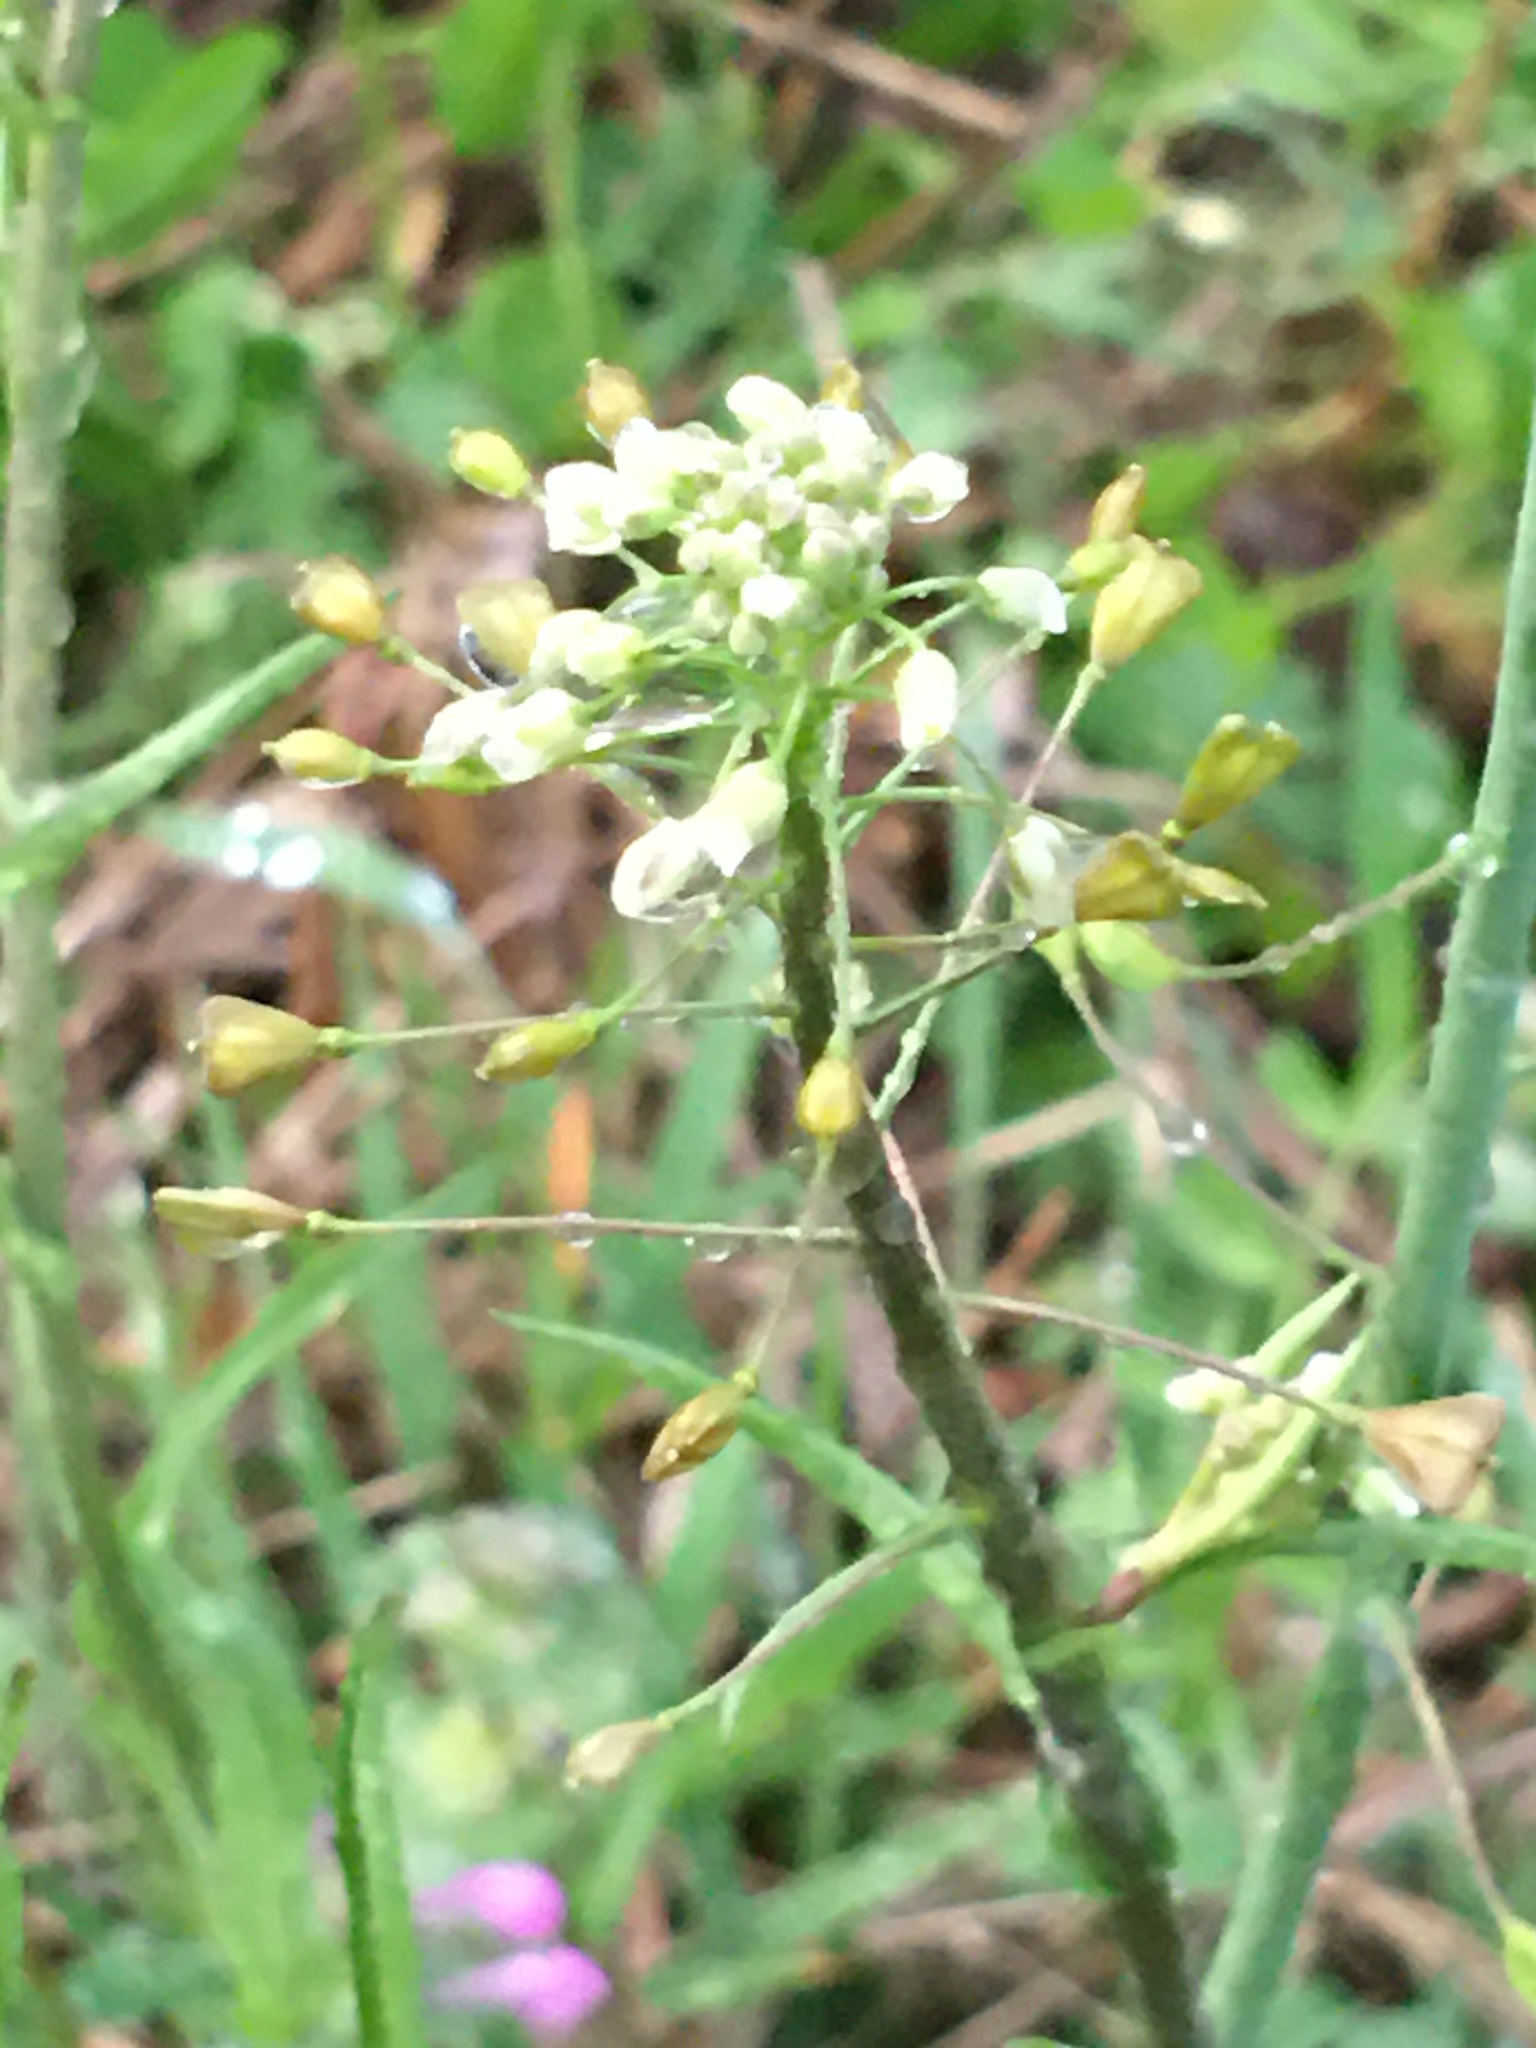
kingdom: Plantae
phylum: Tracheophyta
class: Magnoliopsida
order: Brassicales
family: Brassicaceae
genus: Capsella
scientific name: Capsella bursa-pastoris
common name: Shepherd's purse
